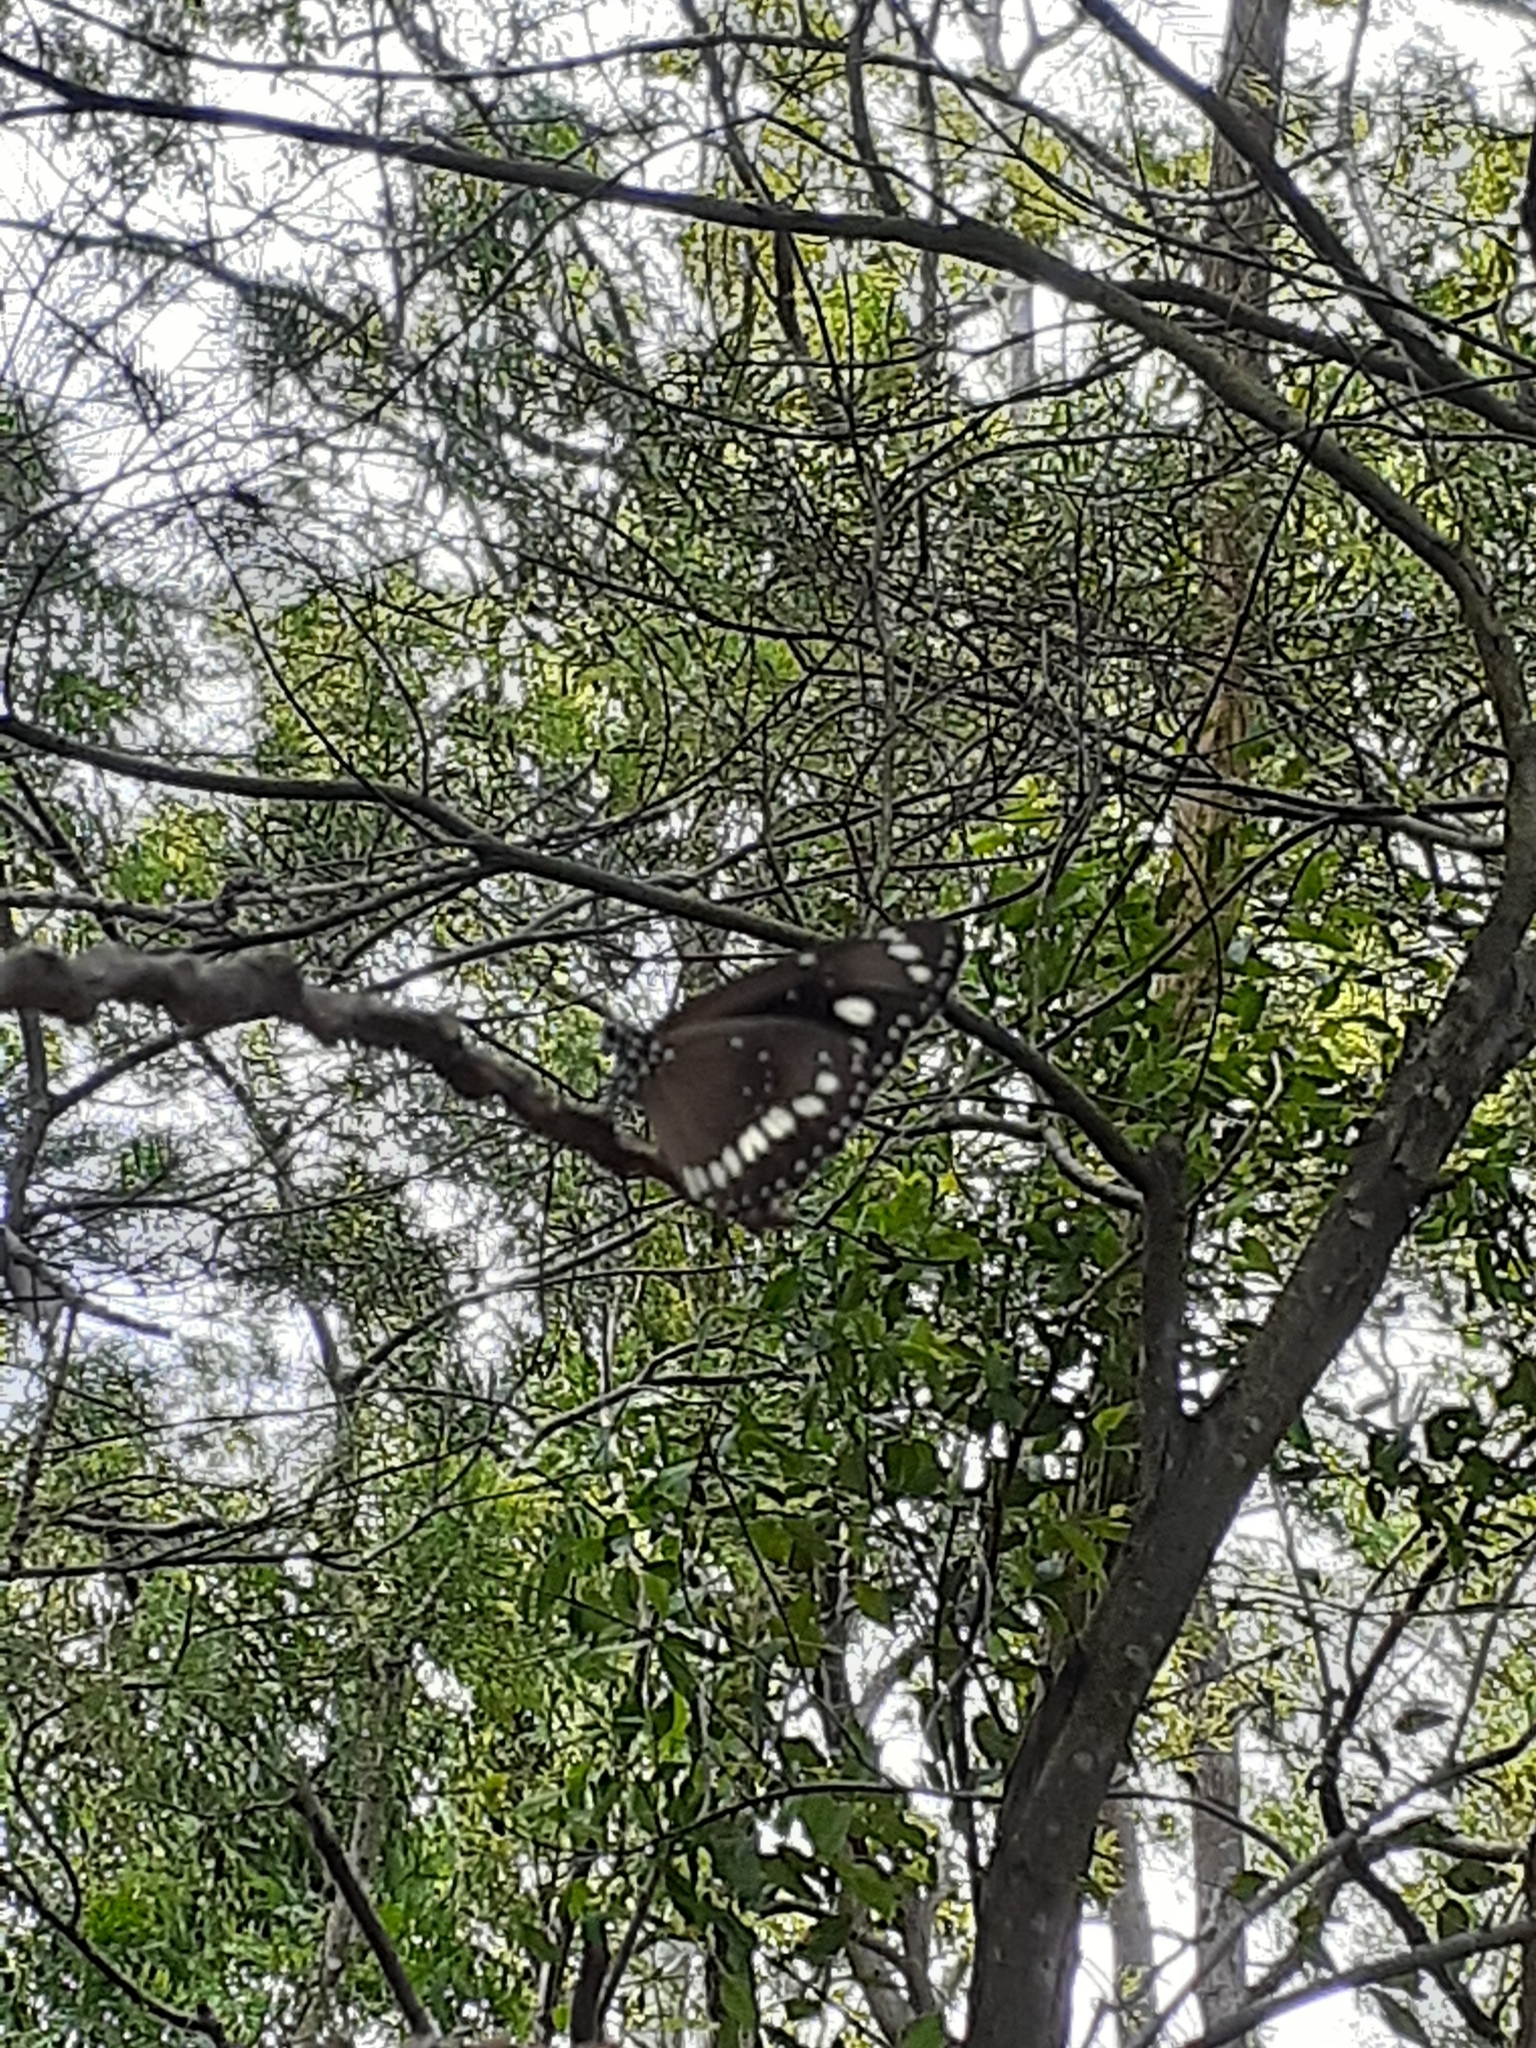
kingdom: Animalia
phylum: Arthropoda
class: Insecta
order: Lepidoptera
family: Nymphalidae
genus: Euploea
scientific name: Euploea core
